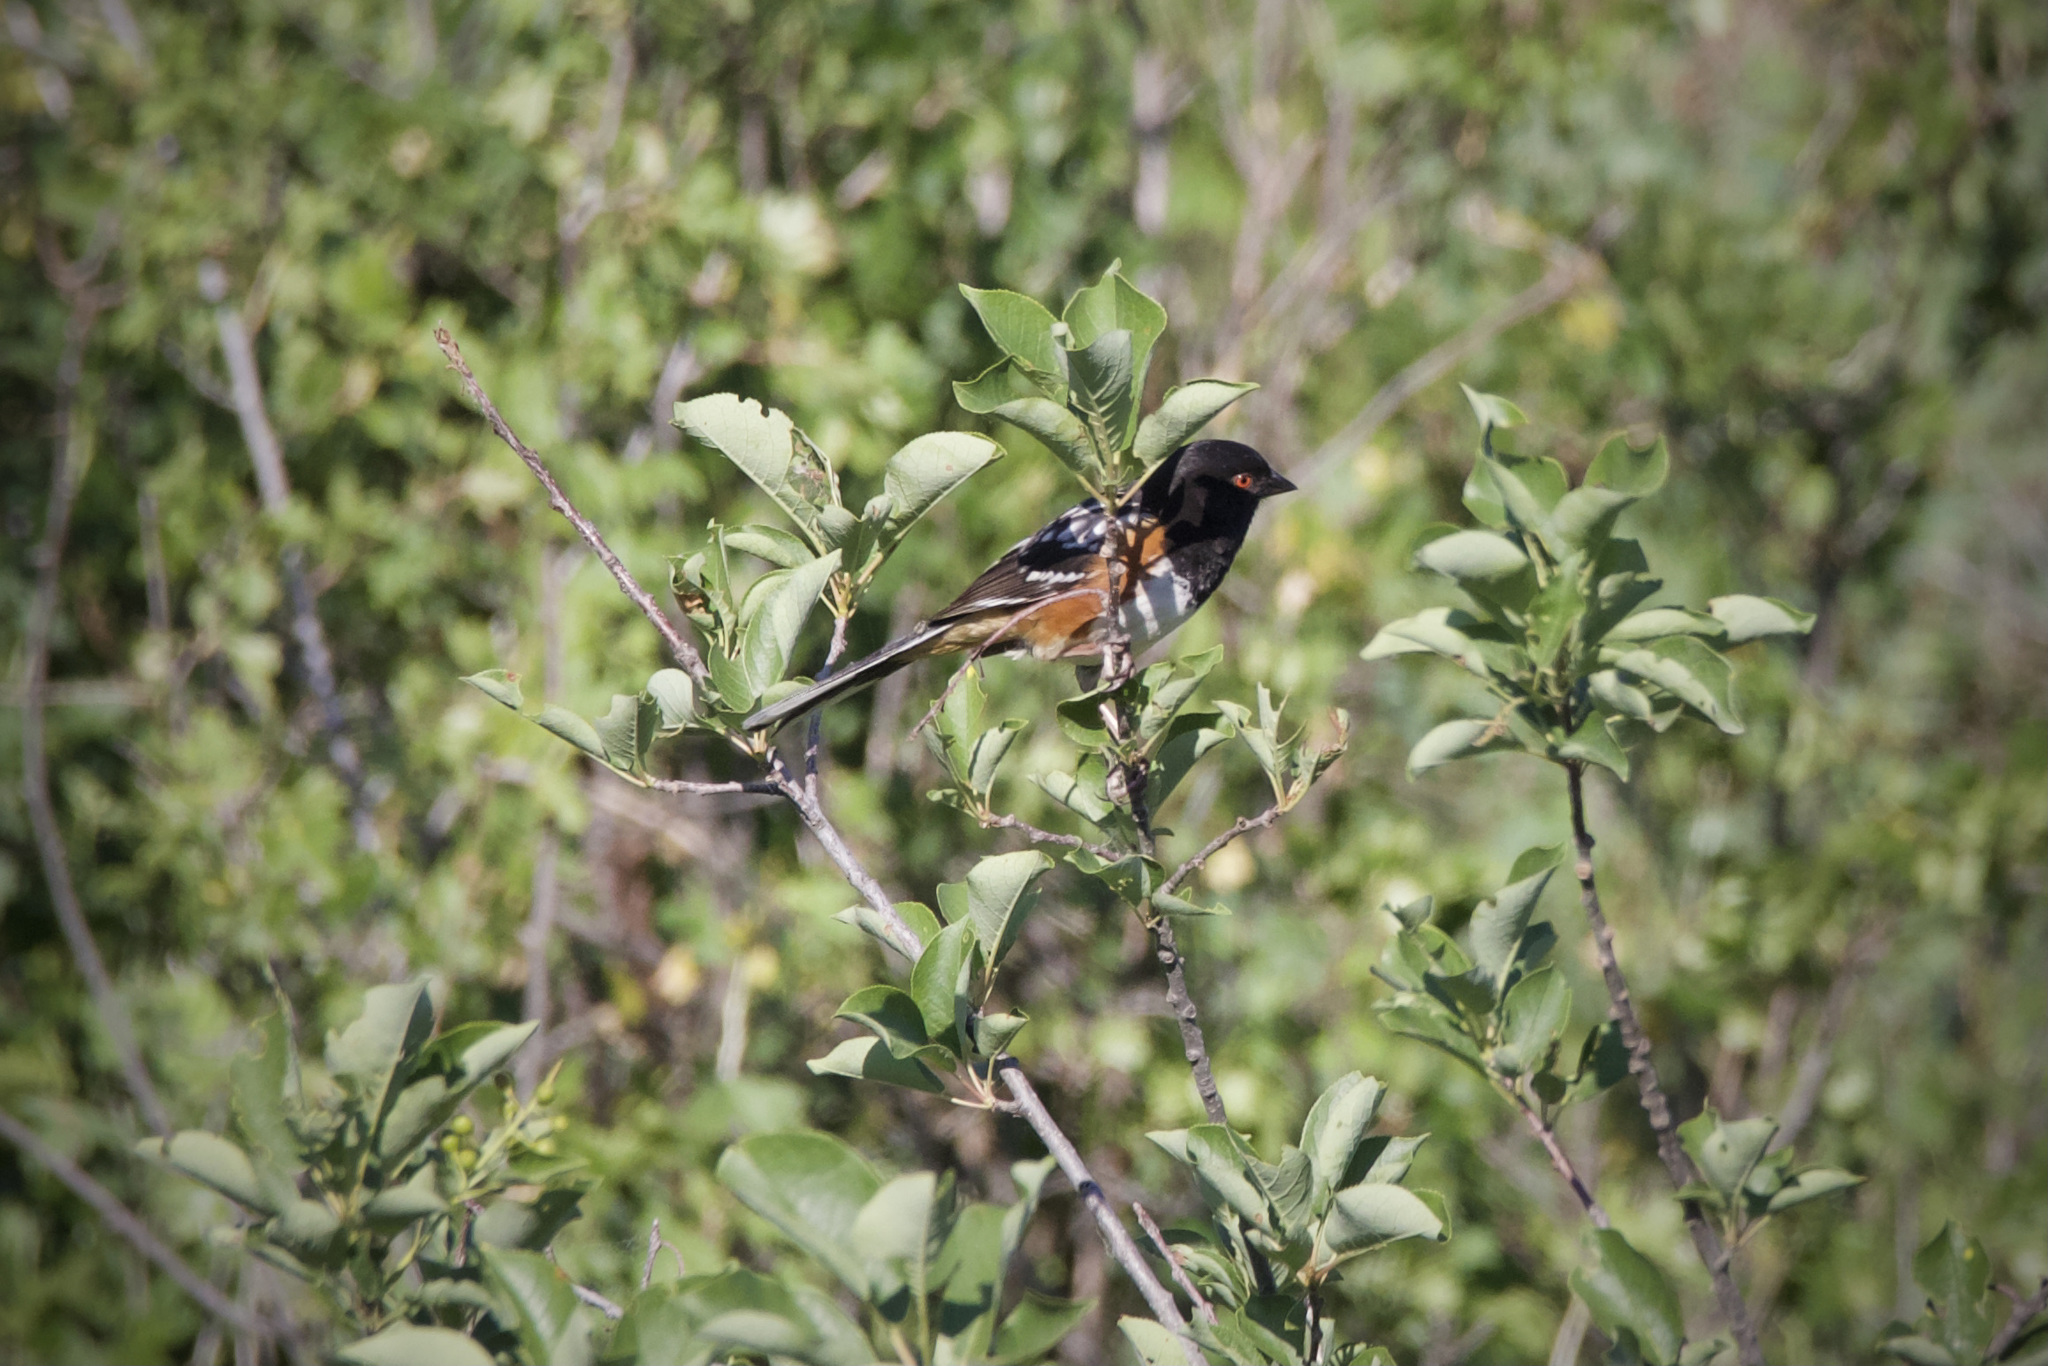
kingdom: Animalia
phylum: Chordata
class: Aves
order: Passeriformes
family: Passerellidae
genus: Pipilo
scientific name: Pipilo maculatus
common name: Spotted towhee
